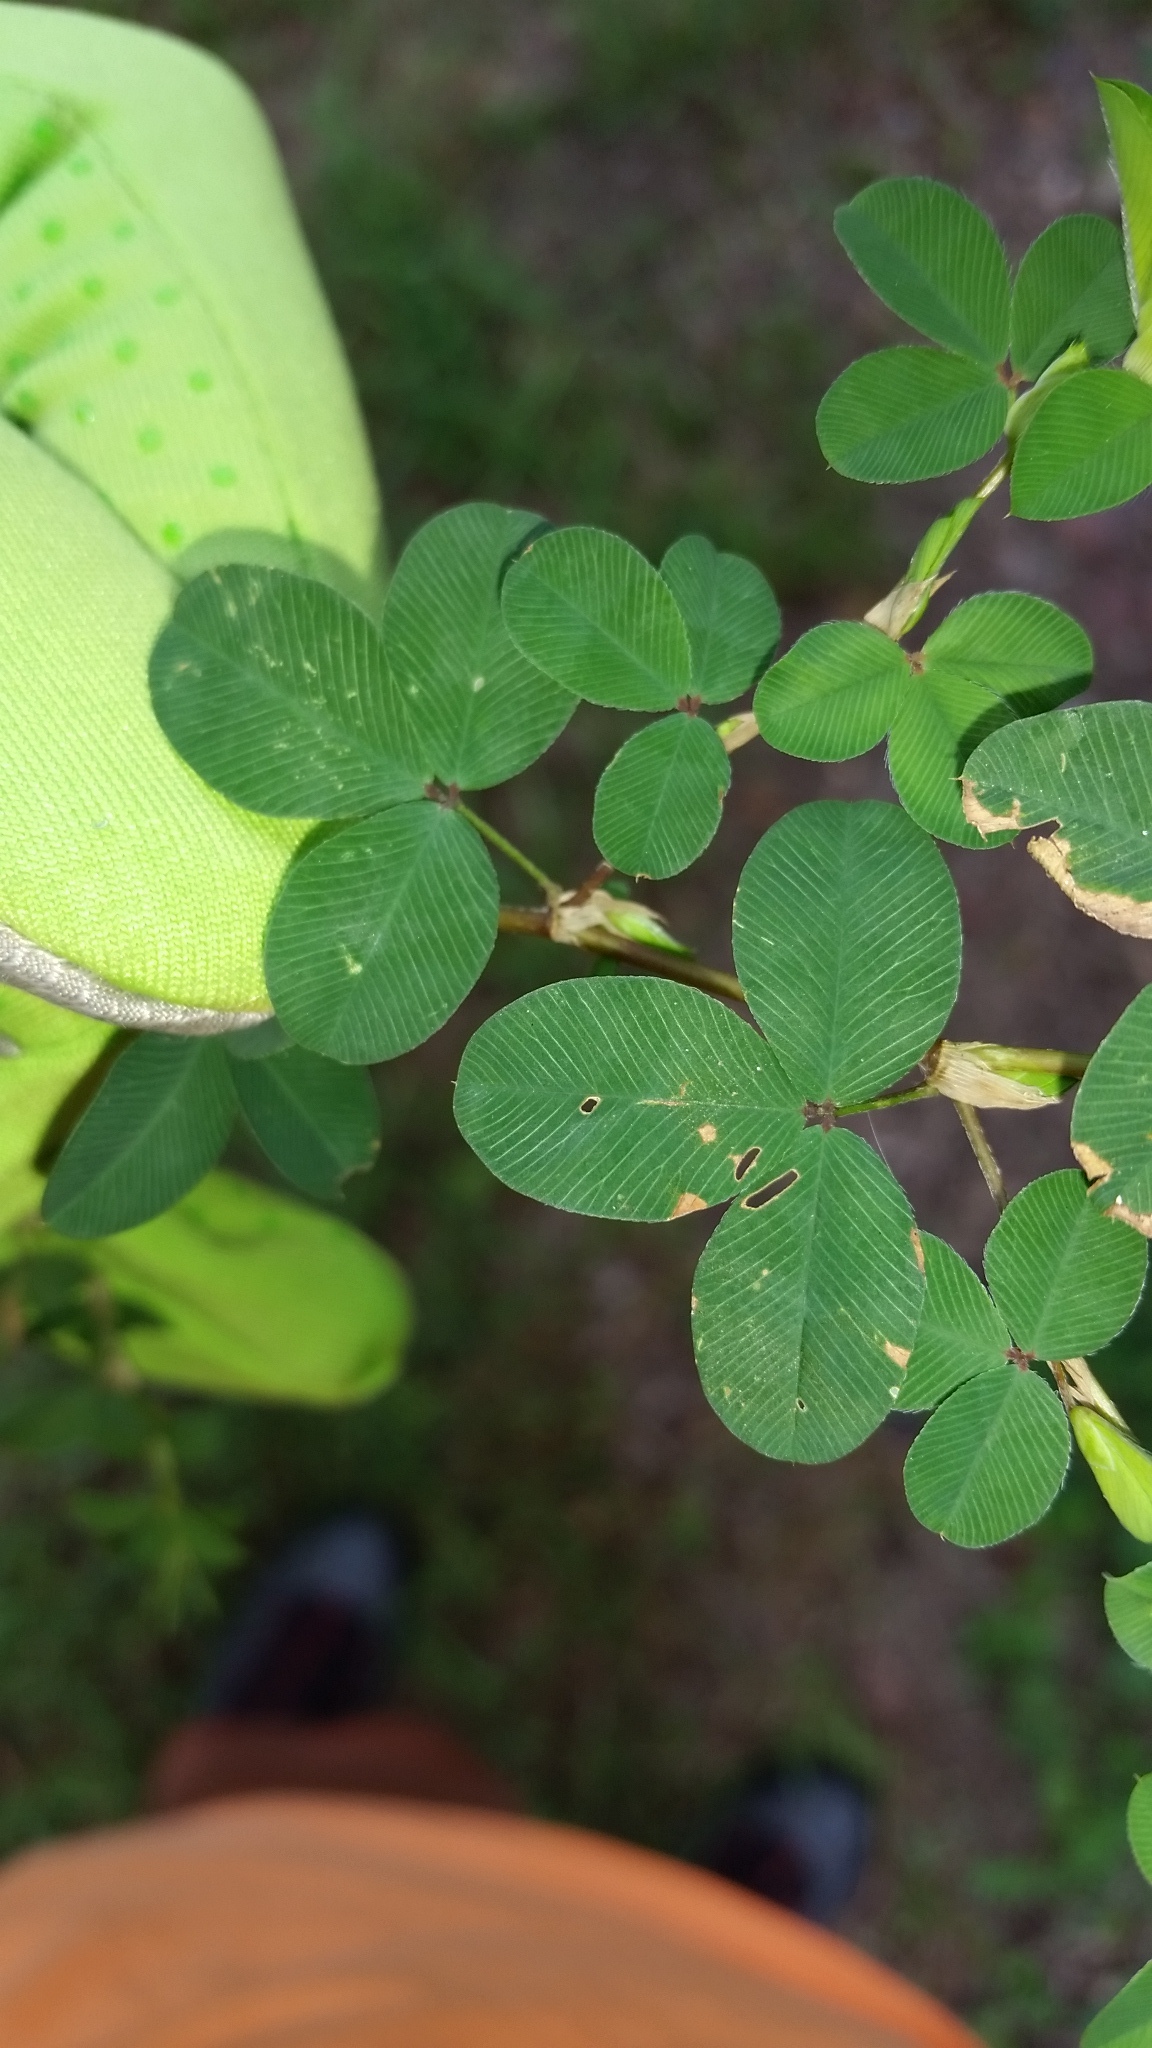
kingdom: Plantae
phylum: Tracheophyta
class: Magnoliopsida
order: Fabales
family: Fabaceae
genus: Kummerowia
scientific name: Kummerowia stipulacea
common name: Korean clover
